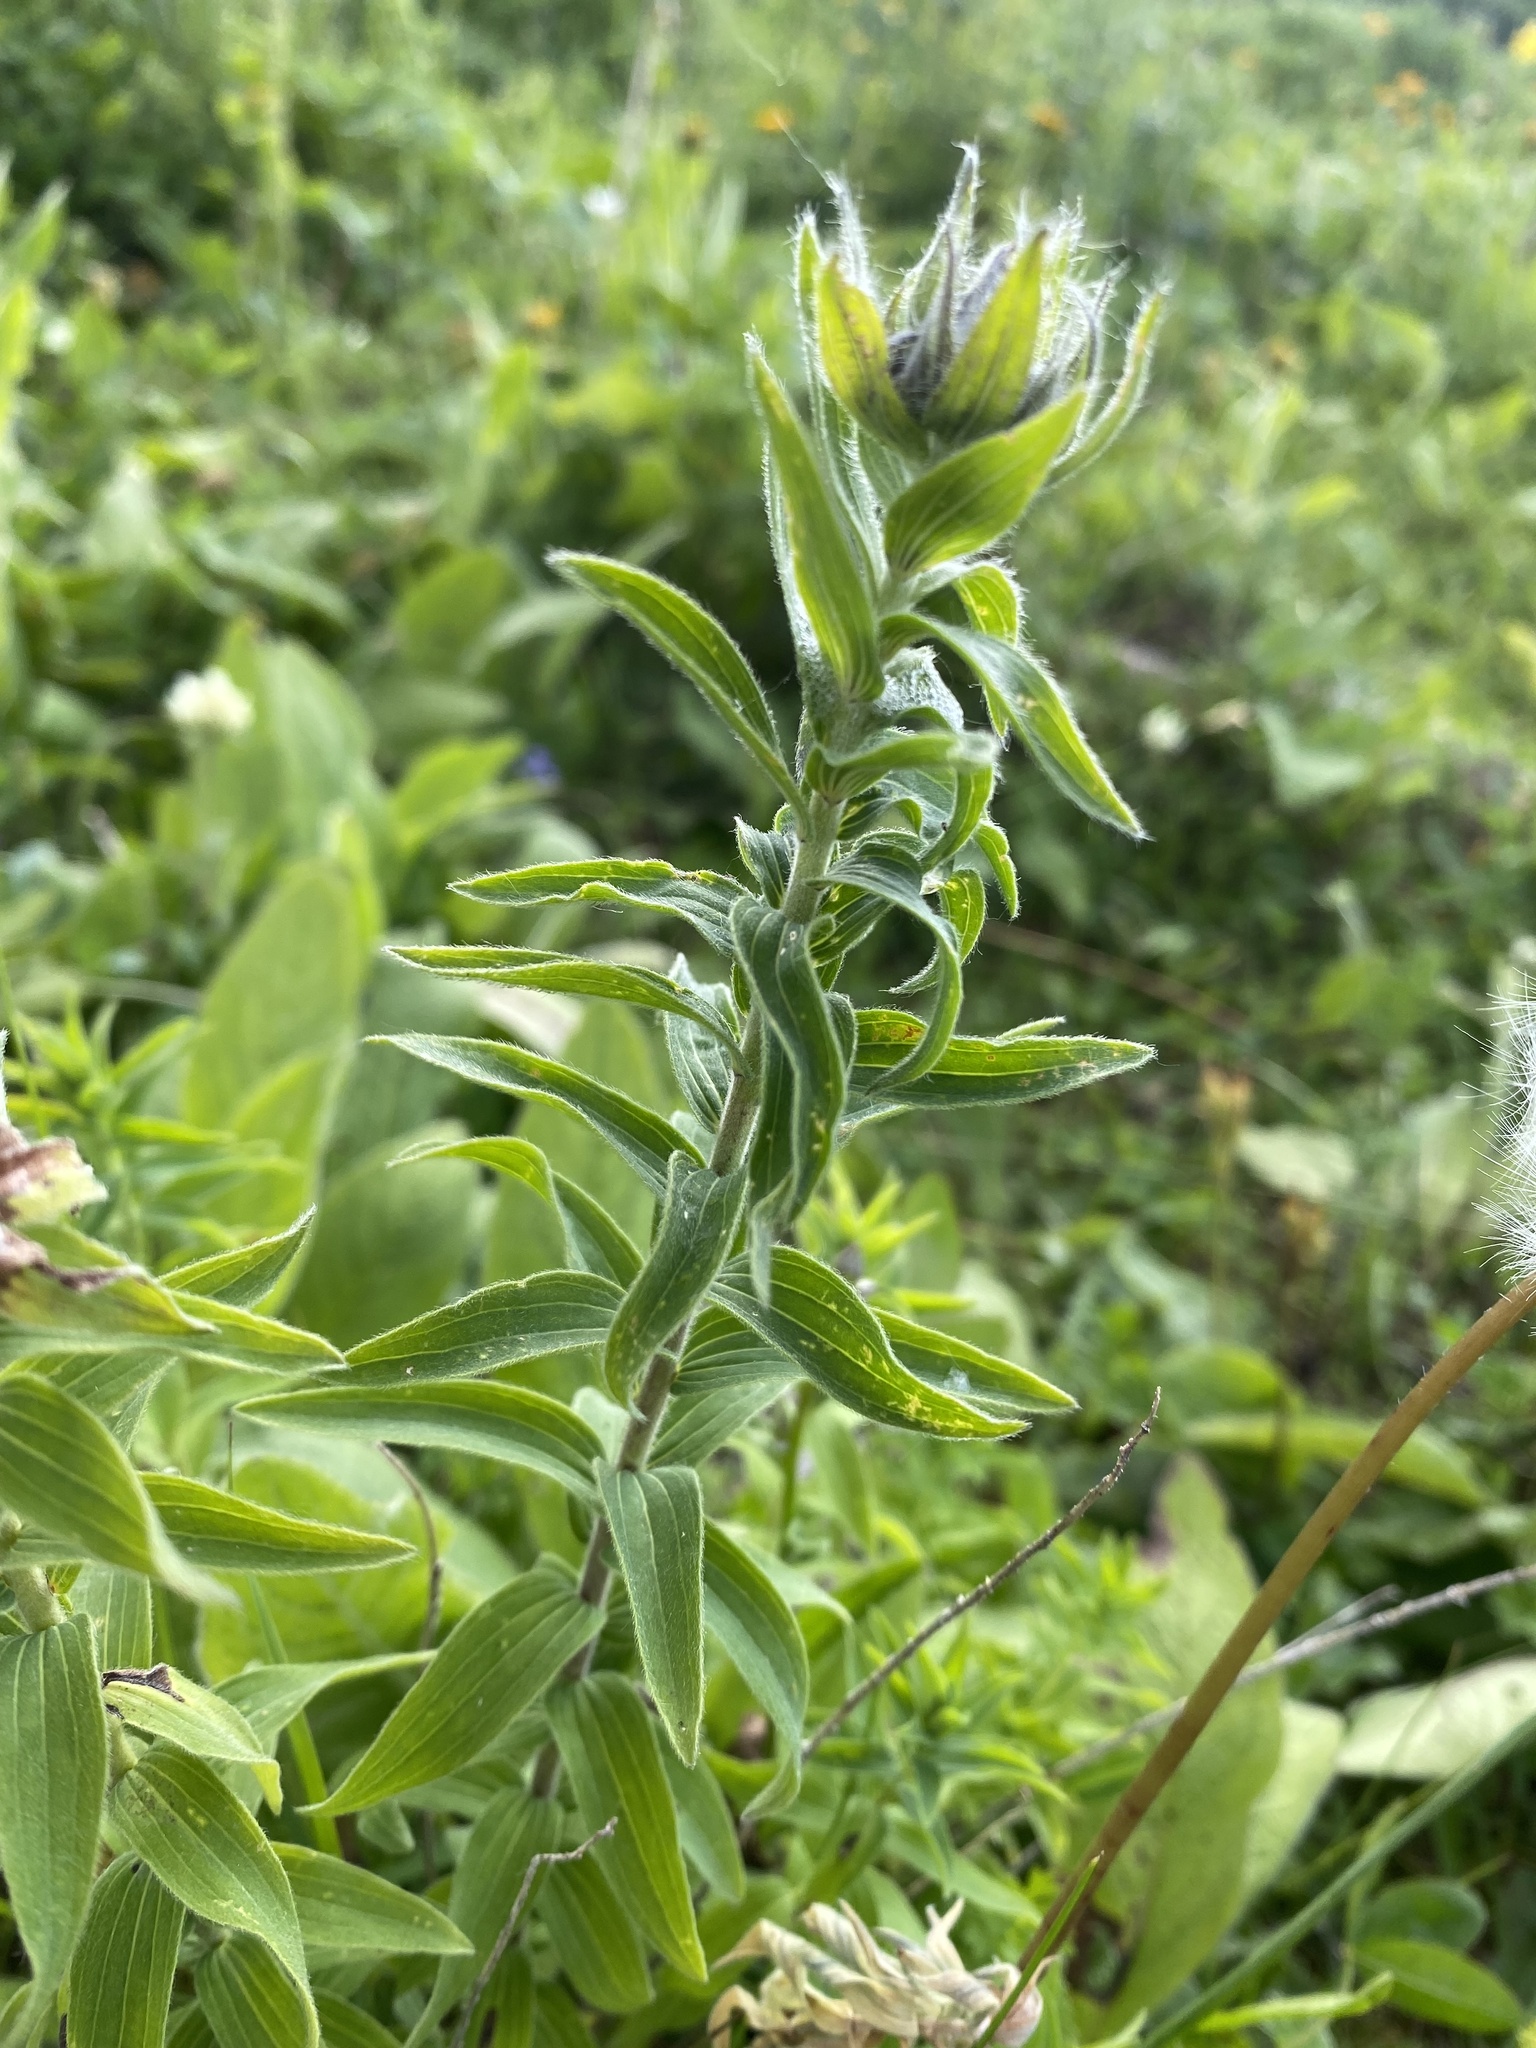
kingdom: Plantae
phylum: Tracheophyta
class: Magnoliopsida
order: Malpighiales
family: Linaceae
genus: Linum
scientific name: Linum hypericifolium
